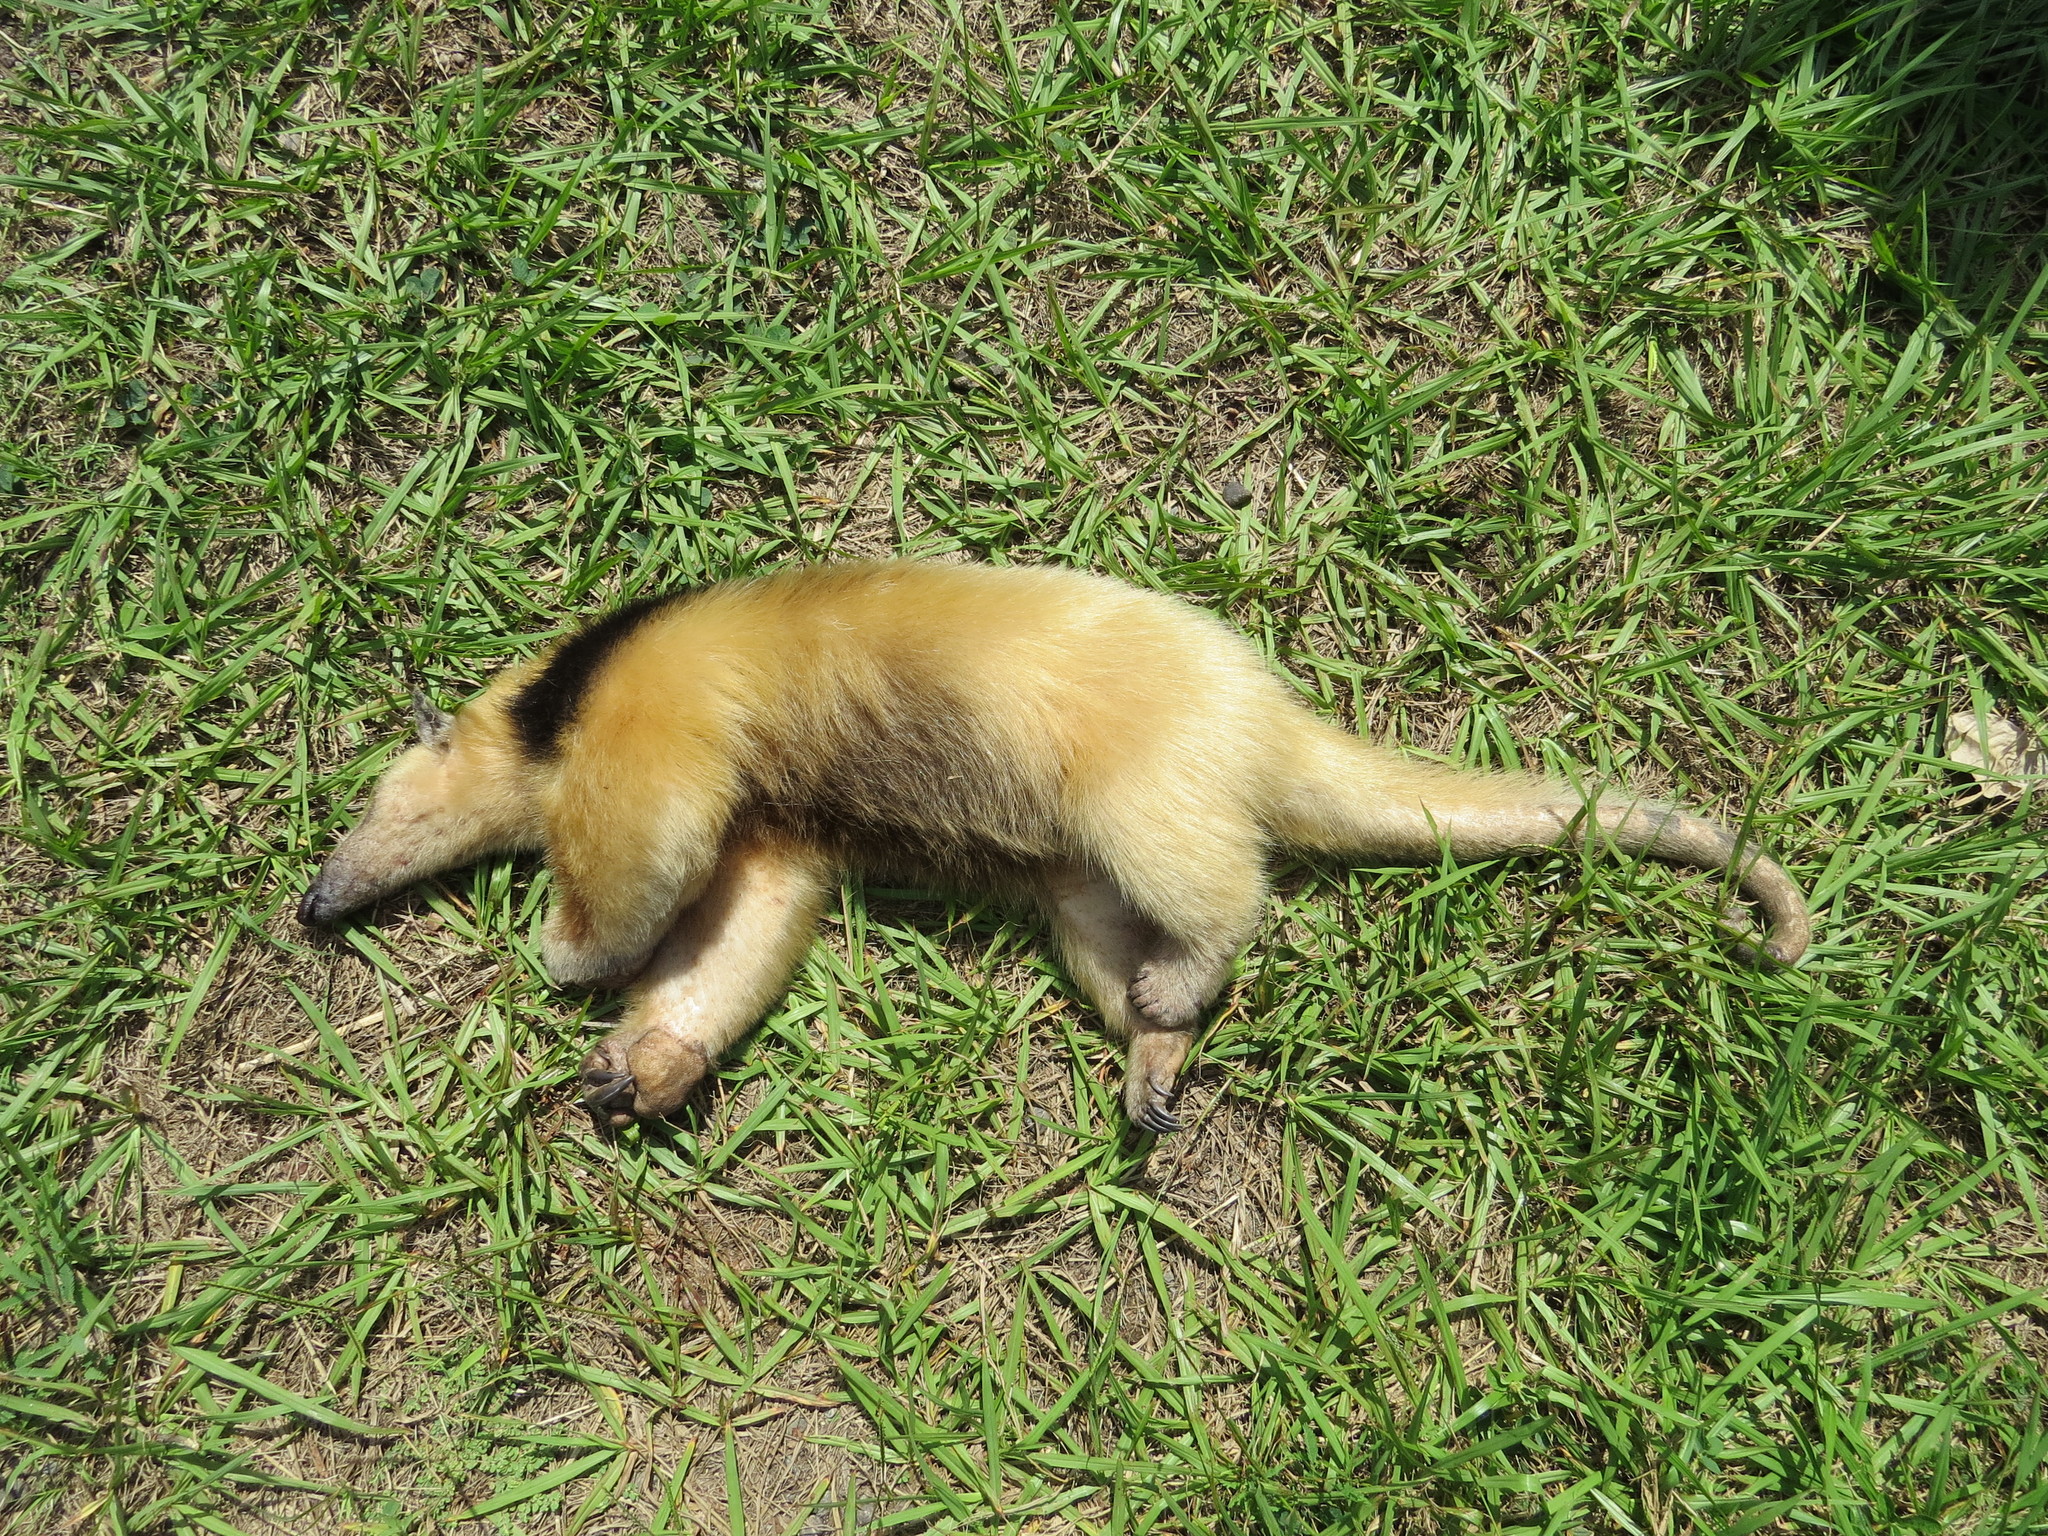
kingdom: Animalia
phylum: Chordata
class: Mammalia
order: Pilosa
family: Myrmecophagidae
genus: Tamandua
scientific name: Tamandua tetradactyla
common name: Southern tamandua
